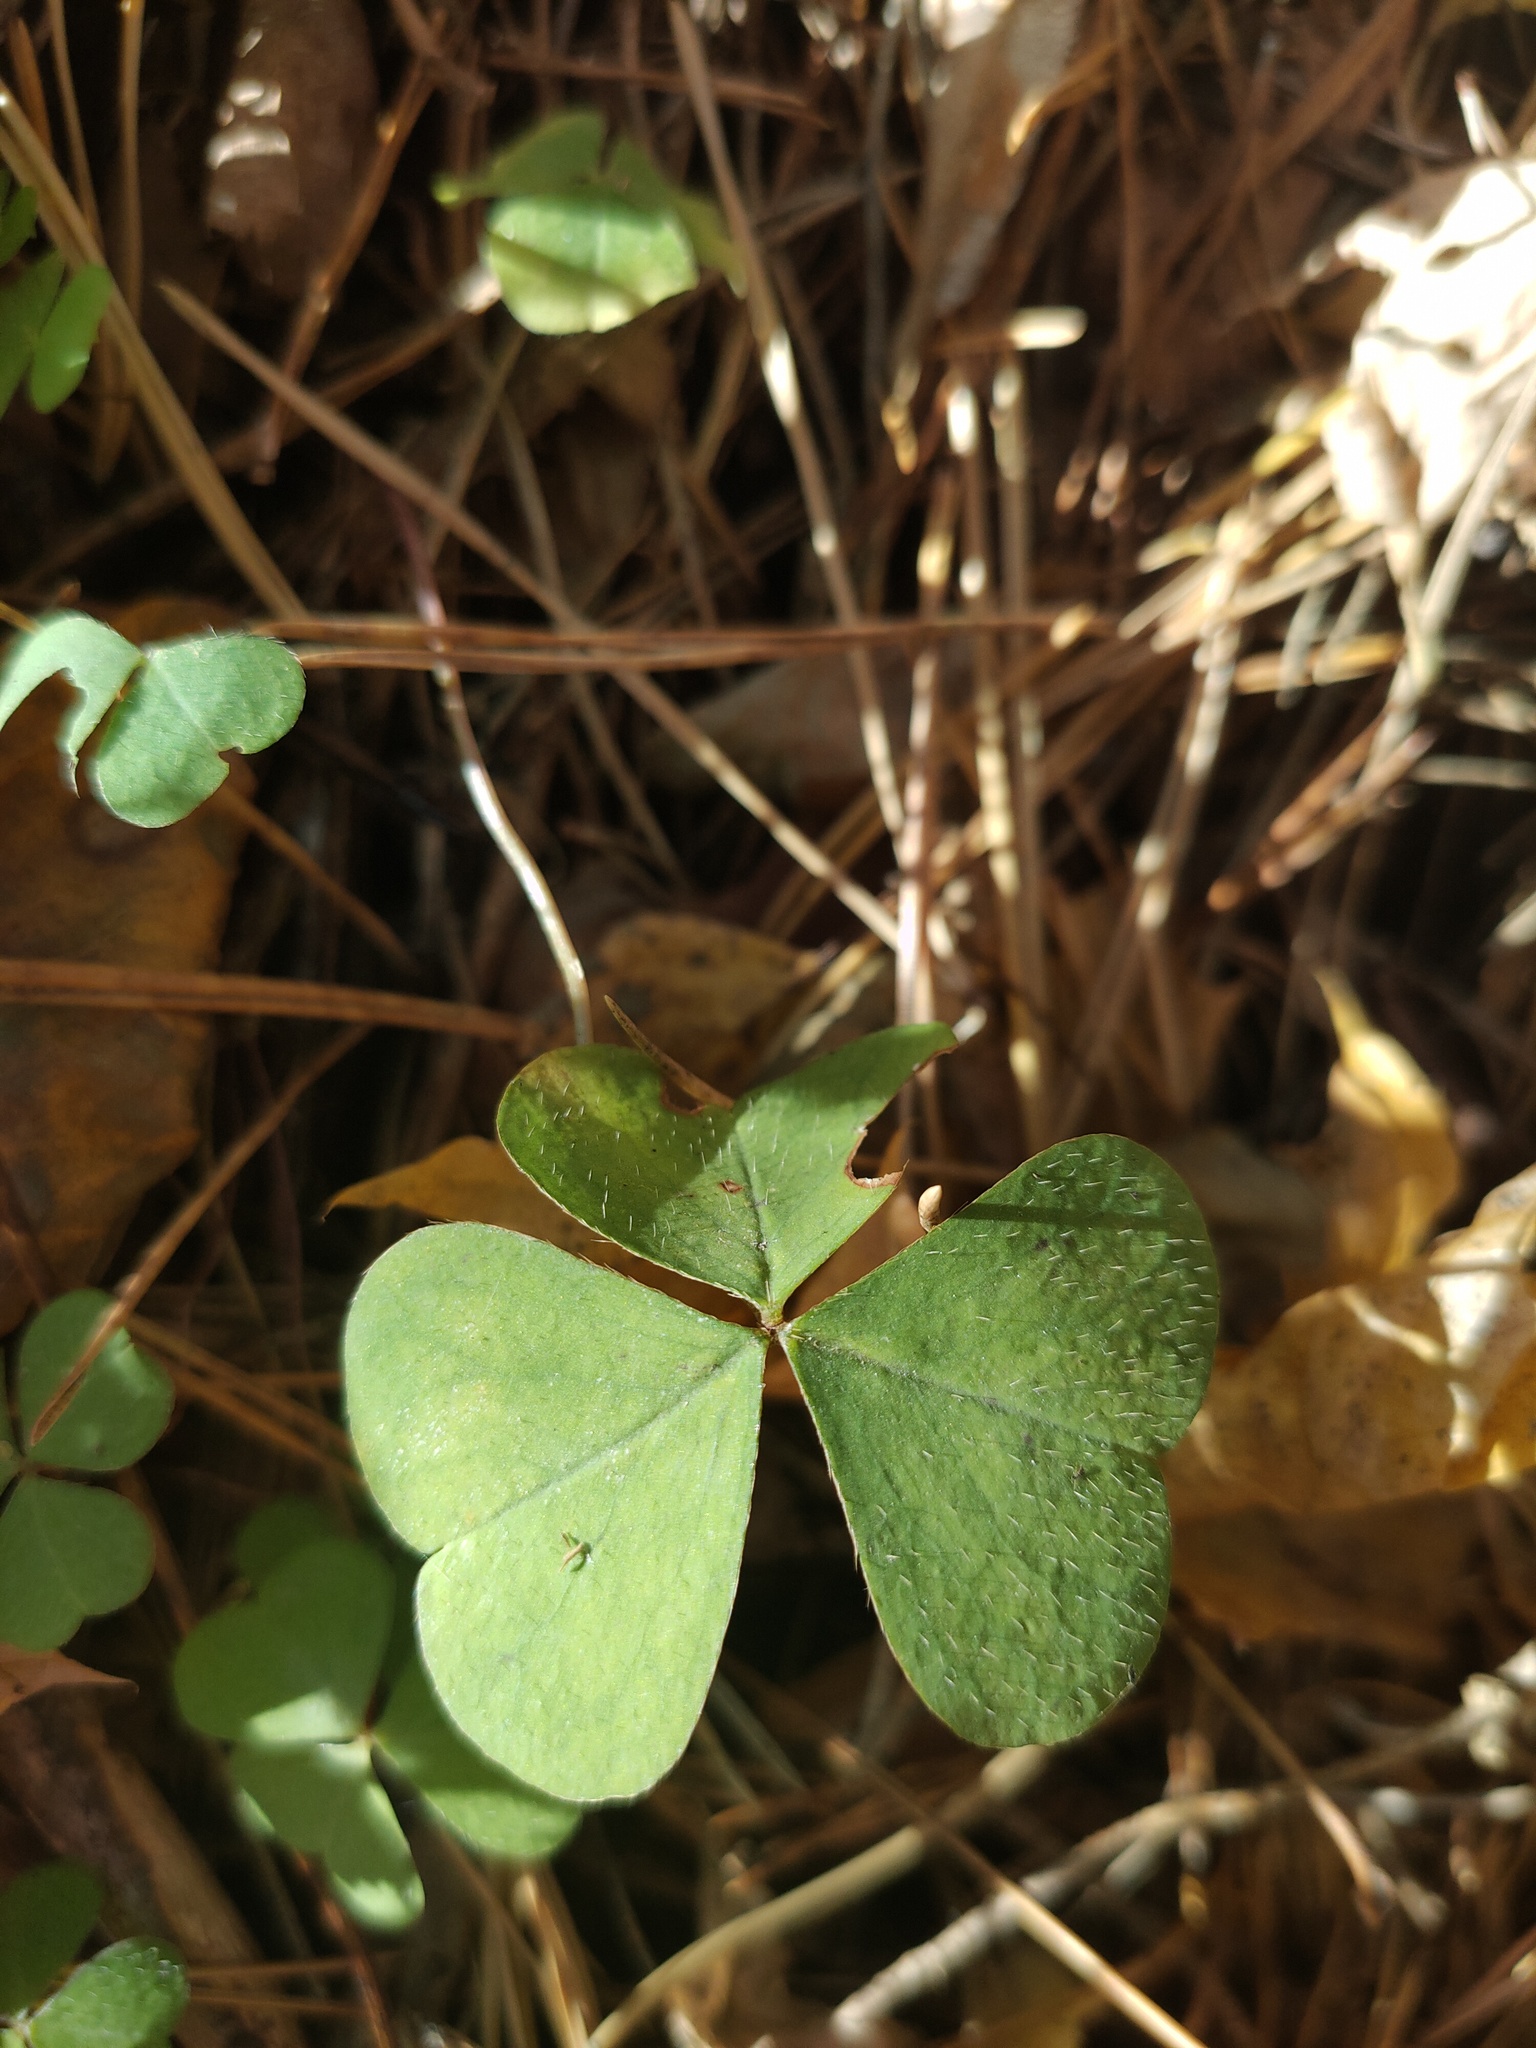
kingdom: Plantae
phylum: Tracheophyta
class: Magnoliopsida
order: Oxalidales
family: Oxalidaceae
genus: Oxalis
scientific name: Oxalis acetosella
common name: Wood-sorrel
